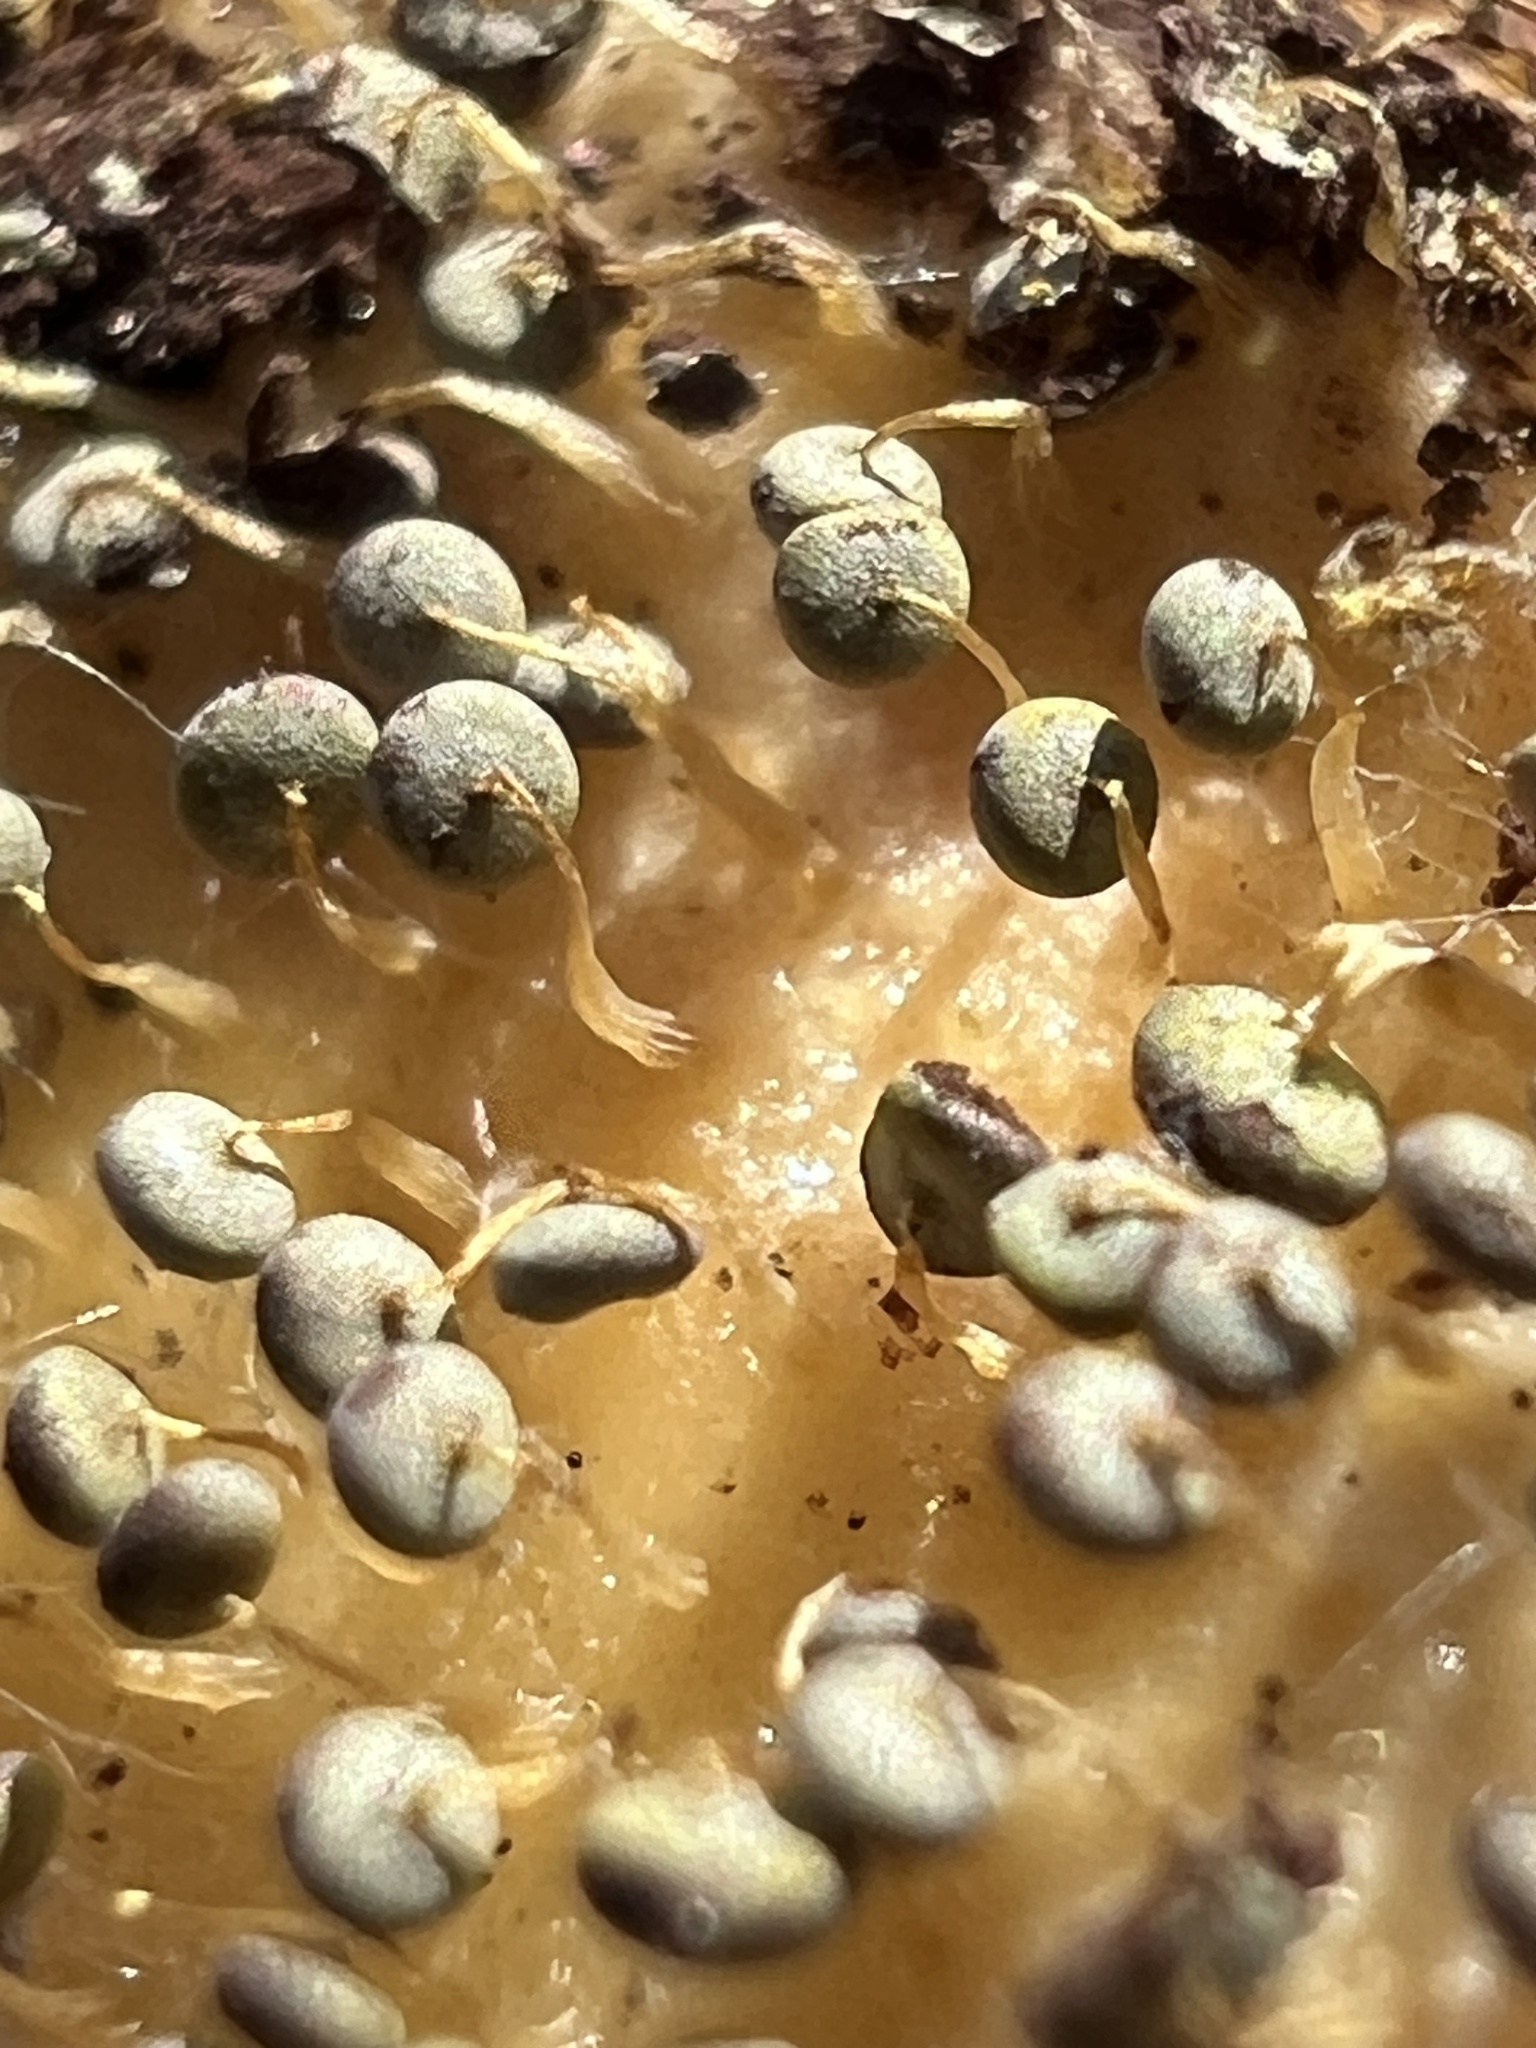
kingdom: Protozoa
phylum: Mycetozoa
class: Myxomycetes
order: Physarales
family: Physaraceae
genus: Physarum
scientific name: Physarum viride
